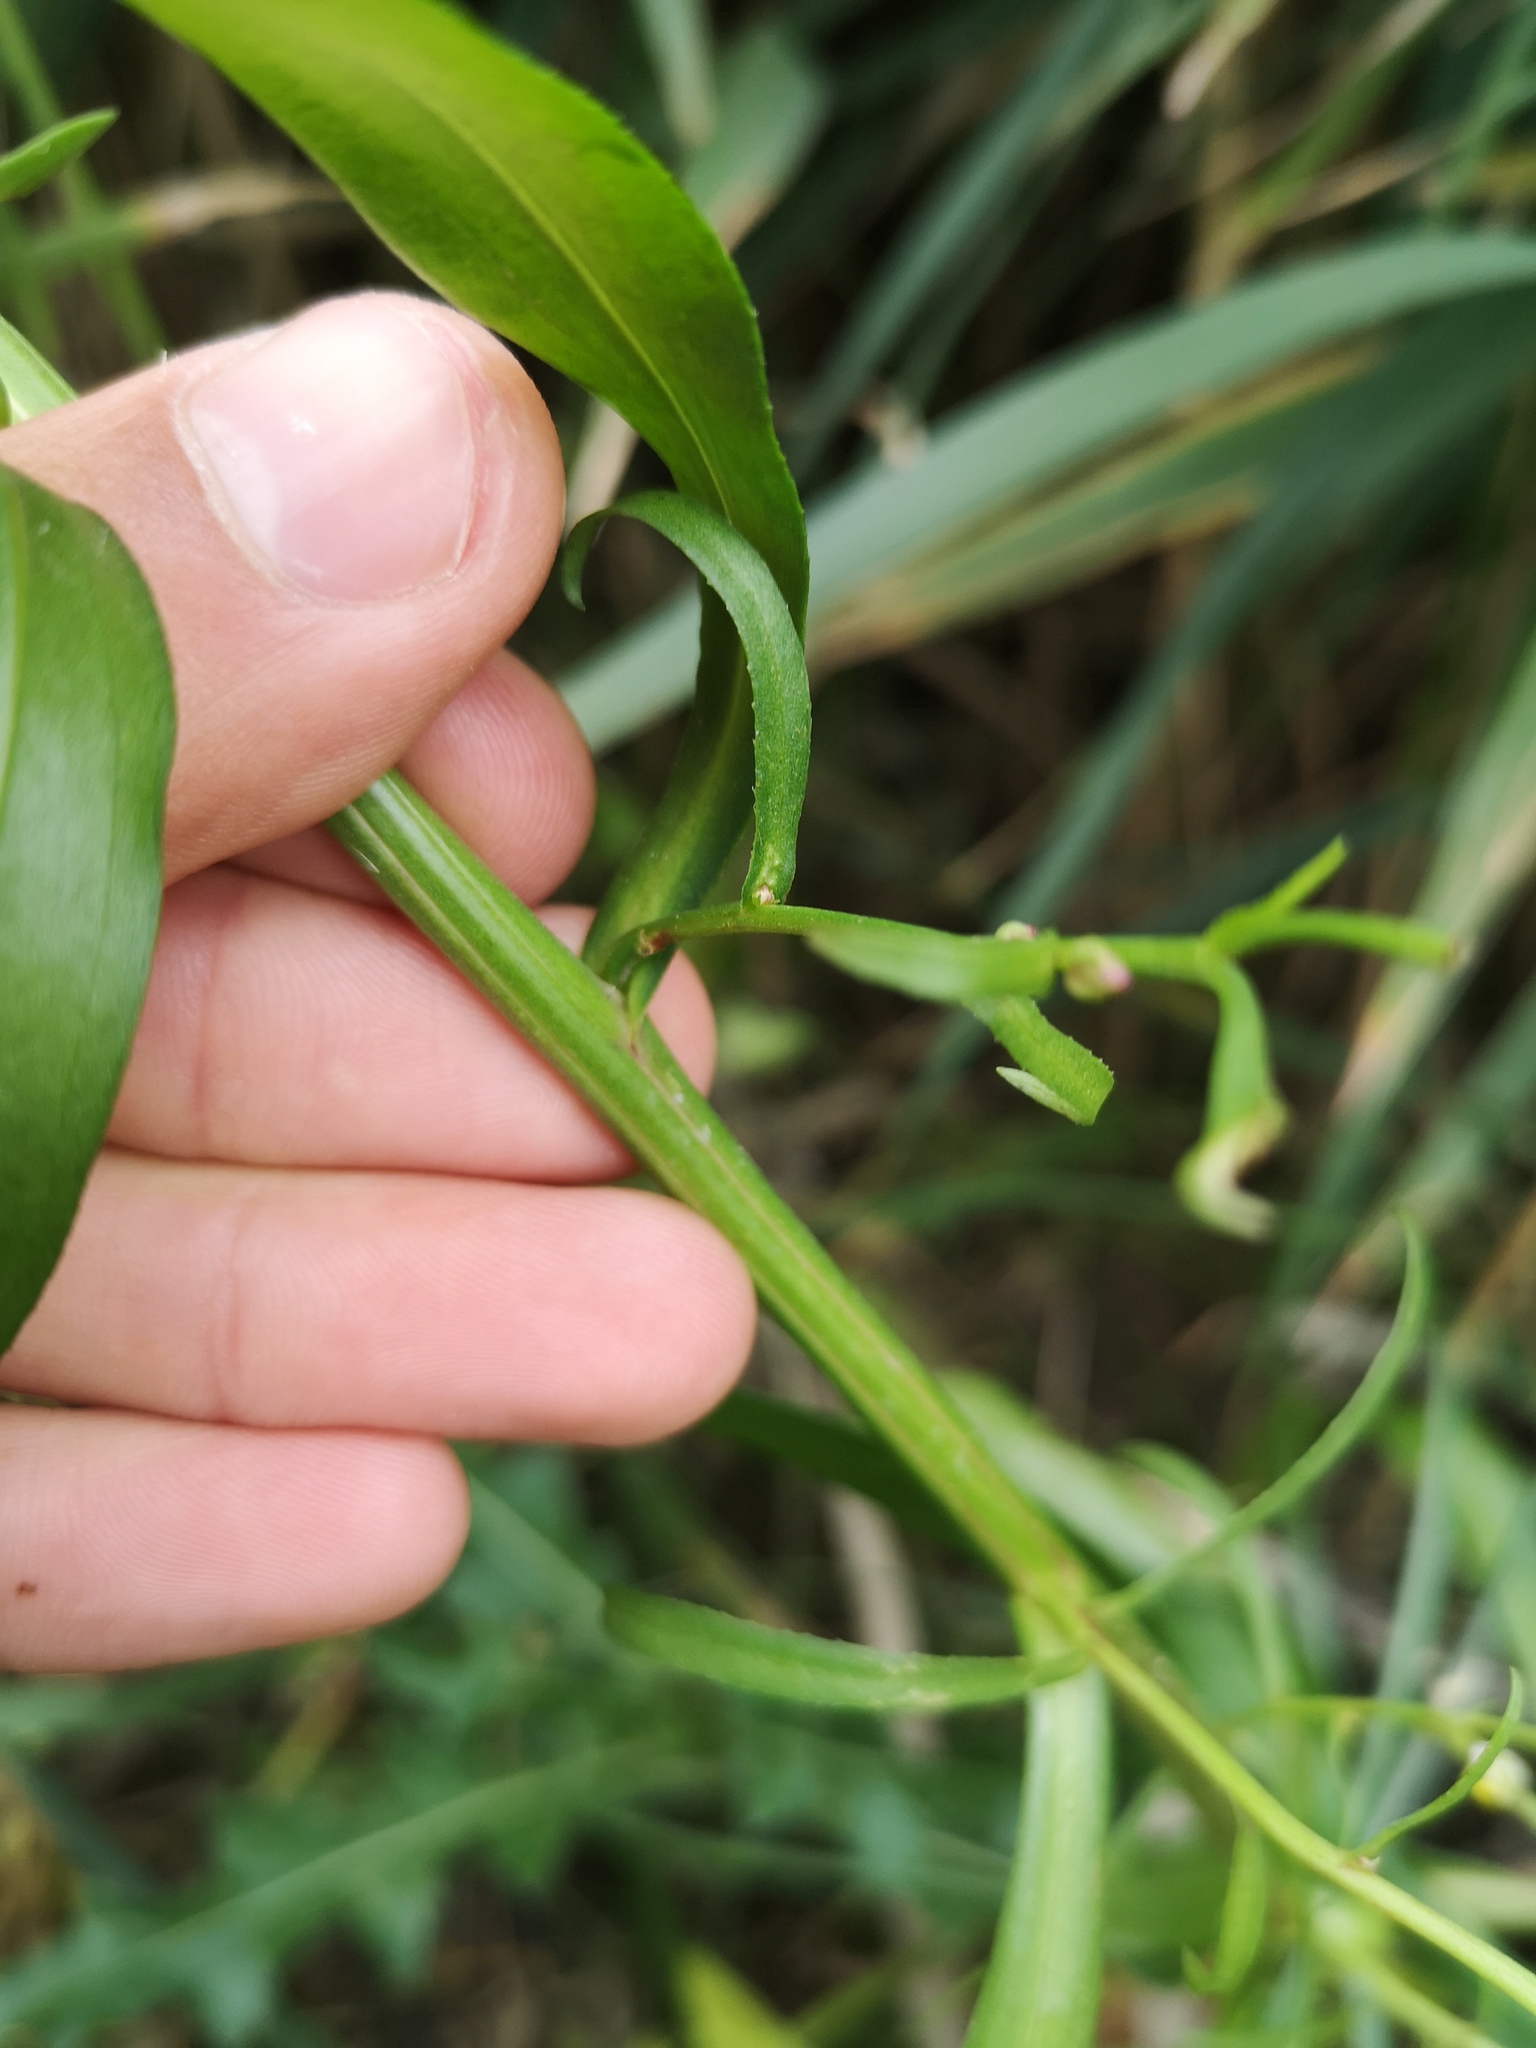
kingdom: Plantae
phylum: Tracheophyta
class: Magnoliopsida
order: Asterales
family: Asteraceae
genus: Tripolium
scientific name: Tripolium pannonicum
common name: Sea aster
